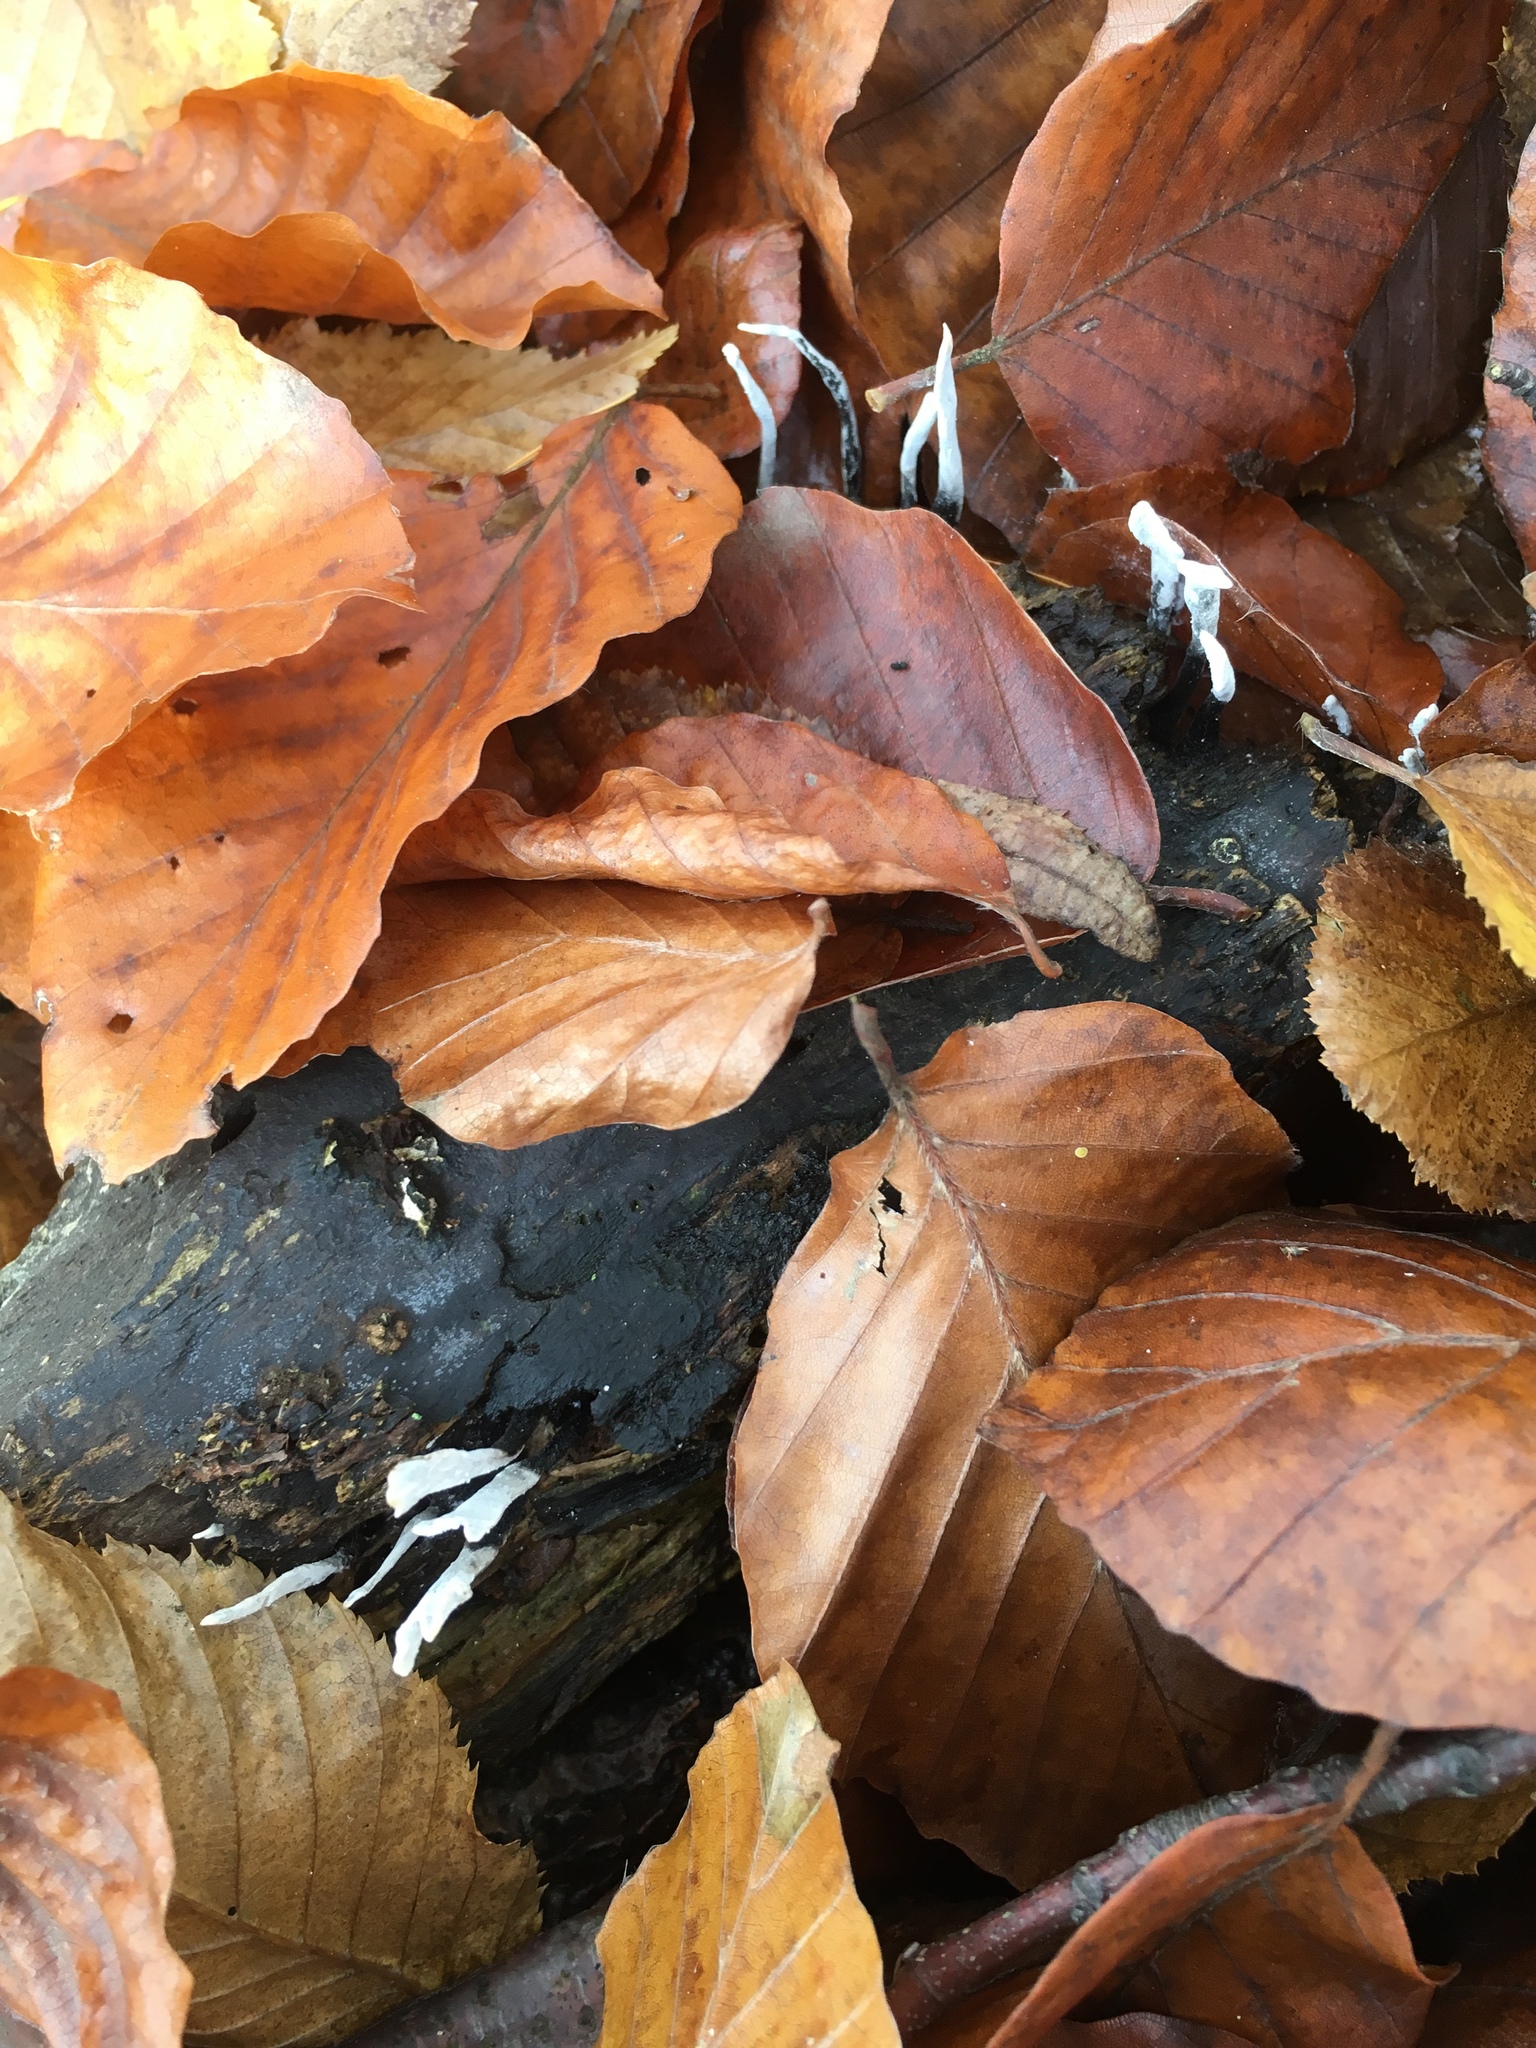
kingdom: Fungi
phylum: Ascomycota
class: Sordariomycetes
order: Xylariales
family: Xylariaceae
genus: Xylaria
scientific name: Xylaria hypoxylon
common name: Candle-snuff fungus
